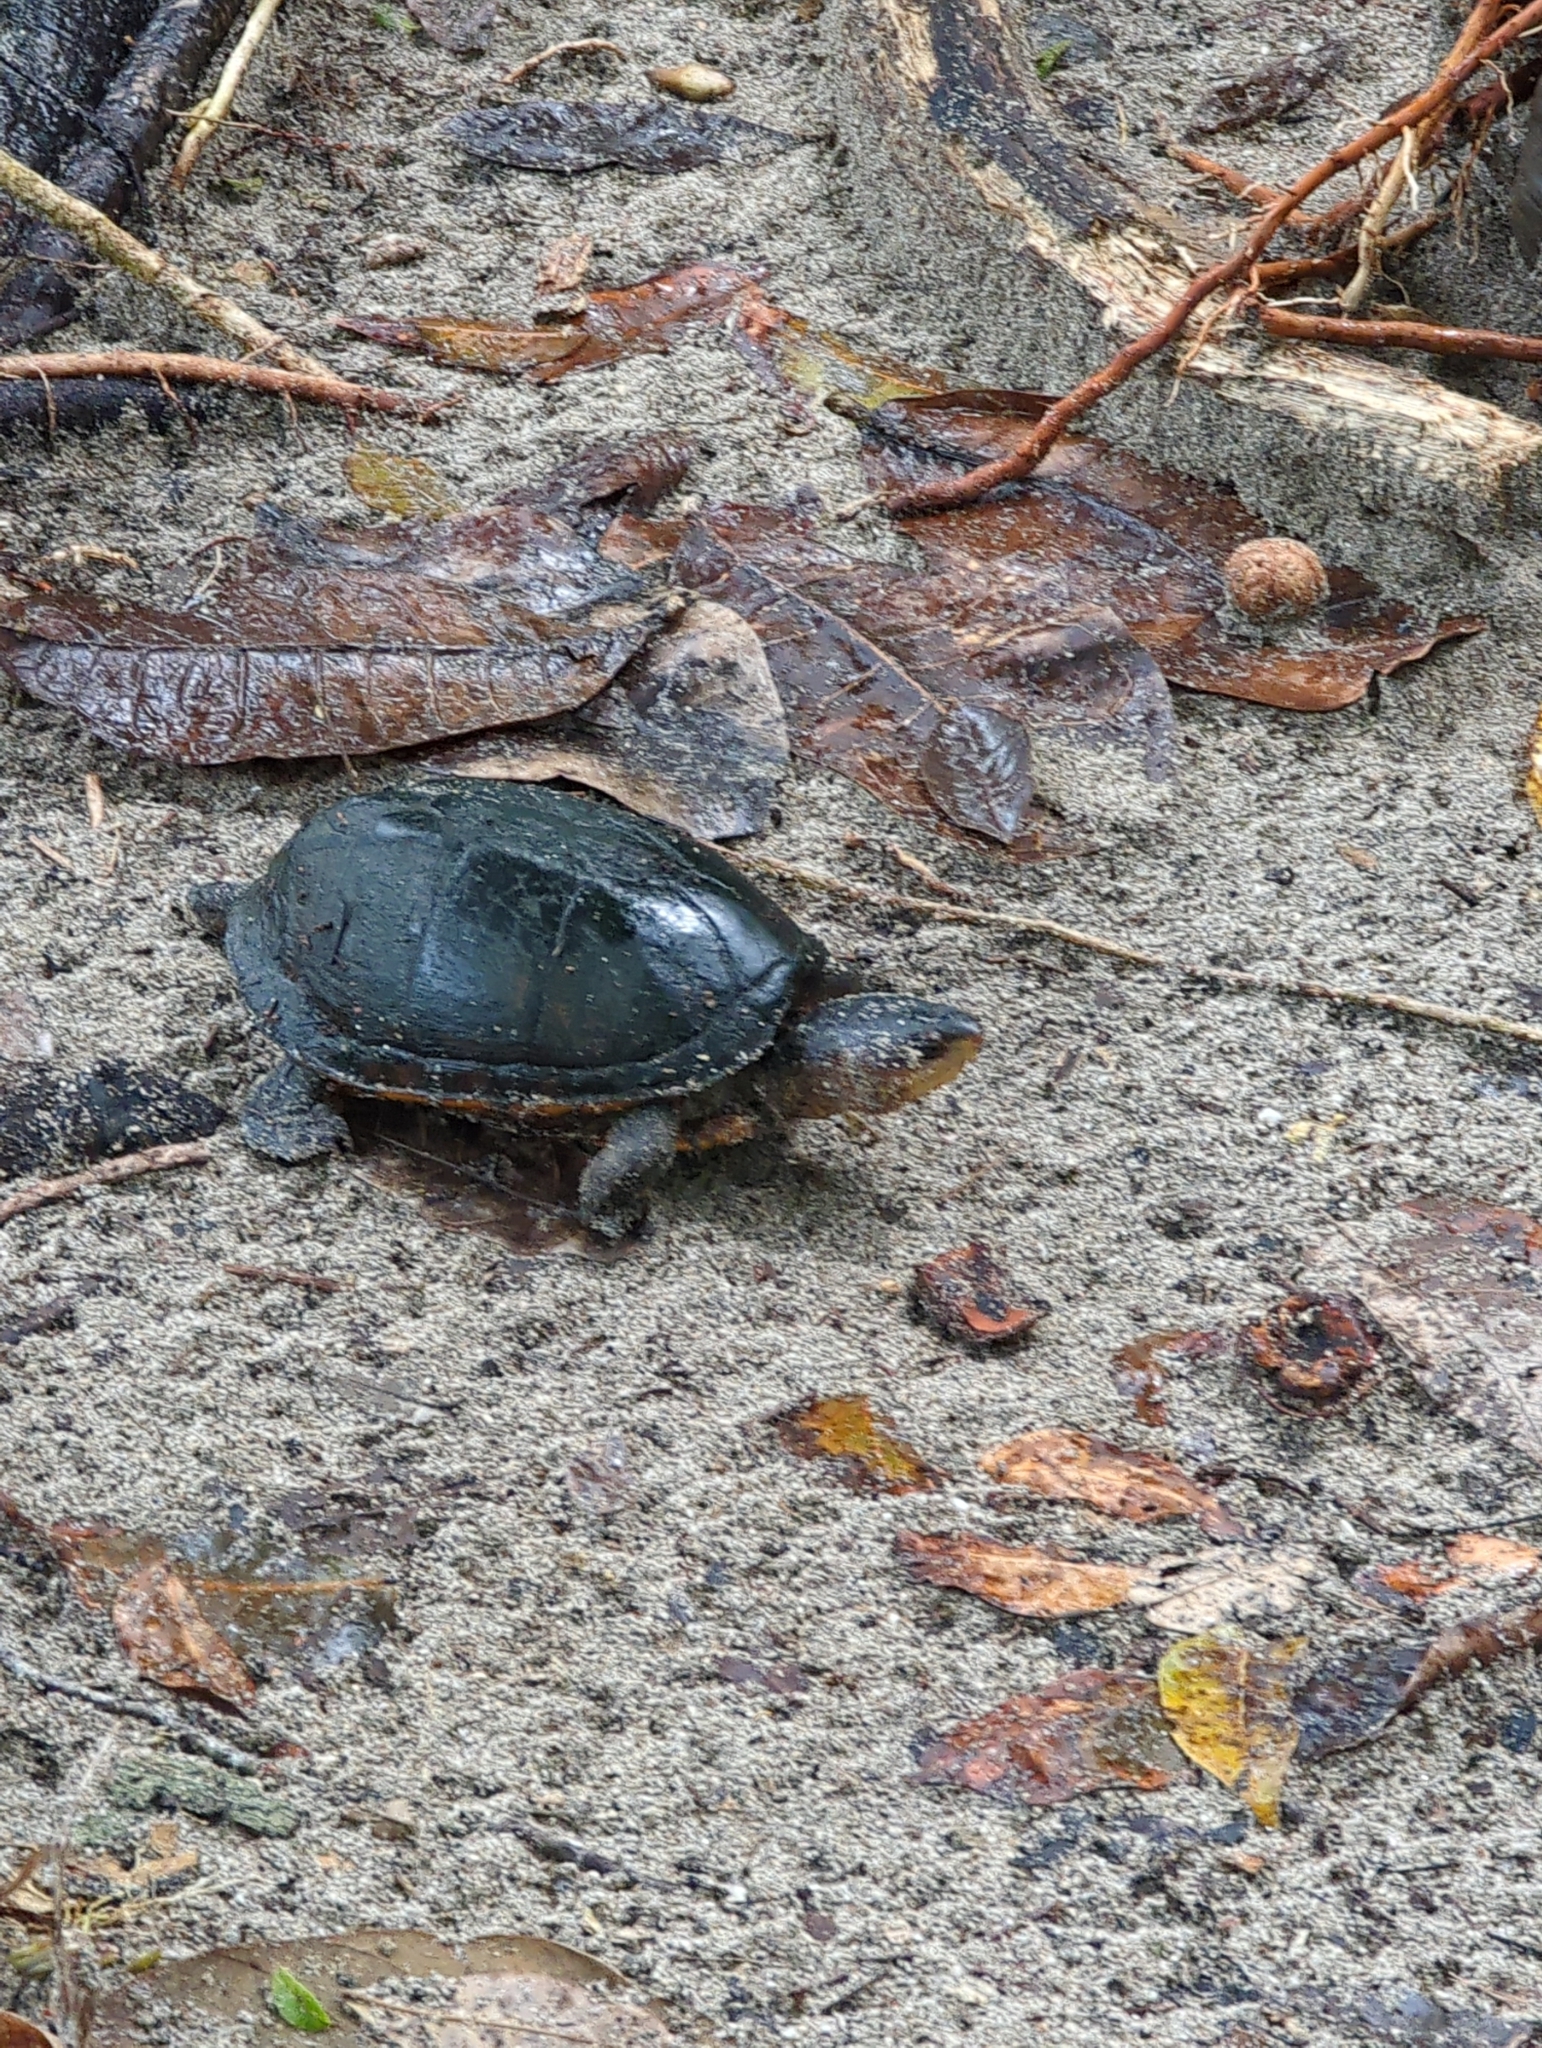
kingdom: Animalia
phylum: Chordata
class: Testudines
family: Kinosternidae
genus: Kinosternon
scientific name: Kinosternon scorpioides
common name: Scorpion mud turtle
